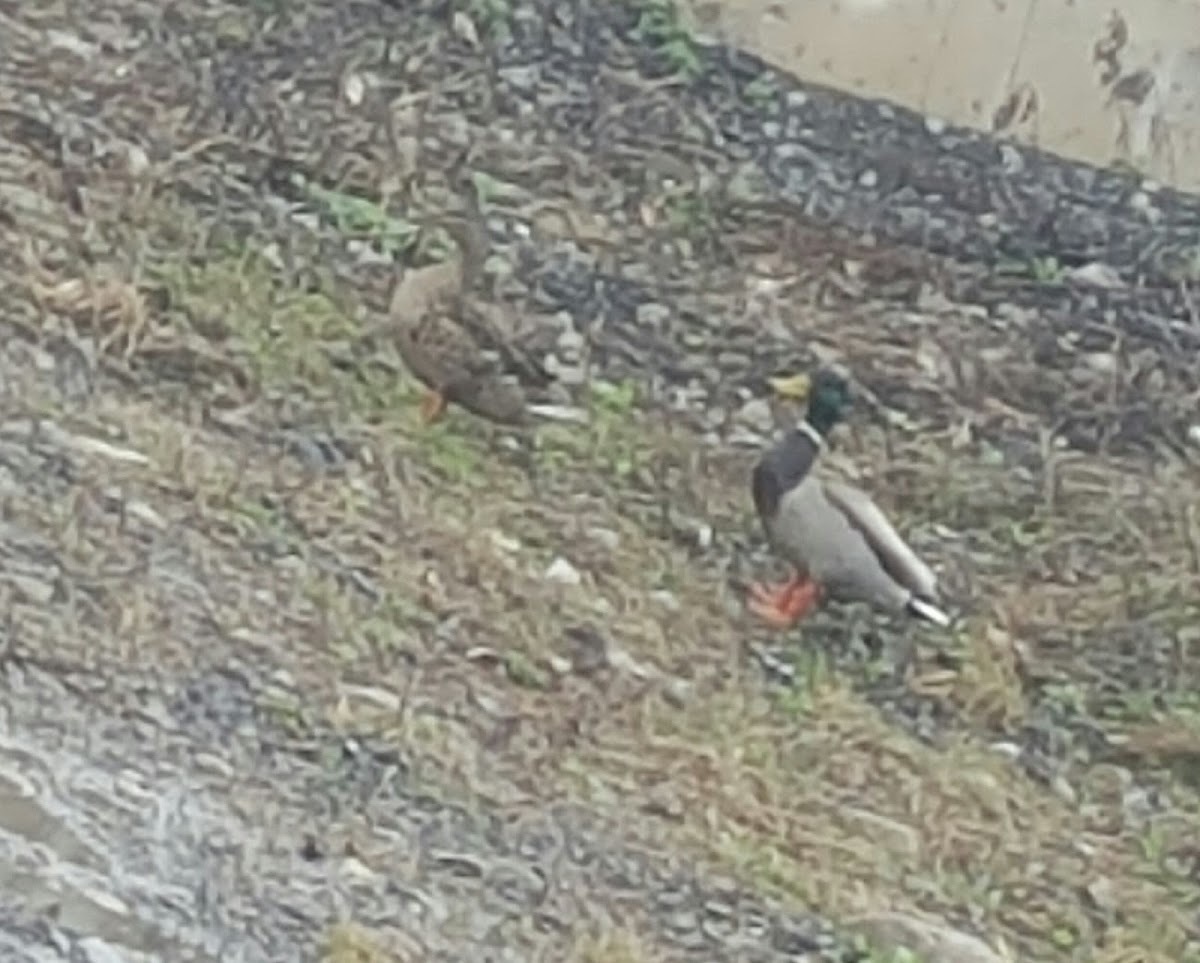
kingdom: Animalia
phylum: Chordata
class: Aves
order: Anseriformes
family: Anatidae
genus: Anas
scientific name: Anas platyrhynchos
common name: Mallard
